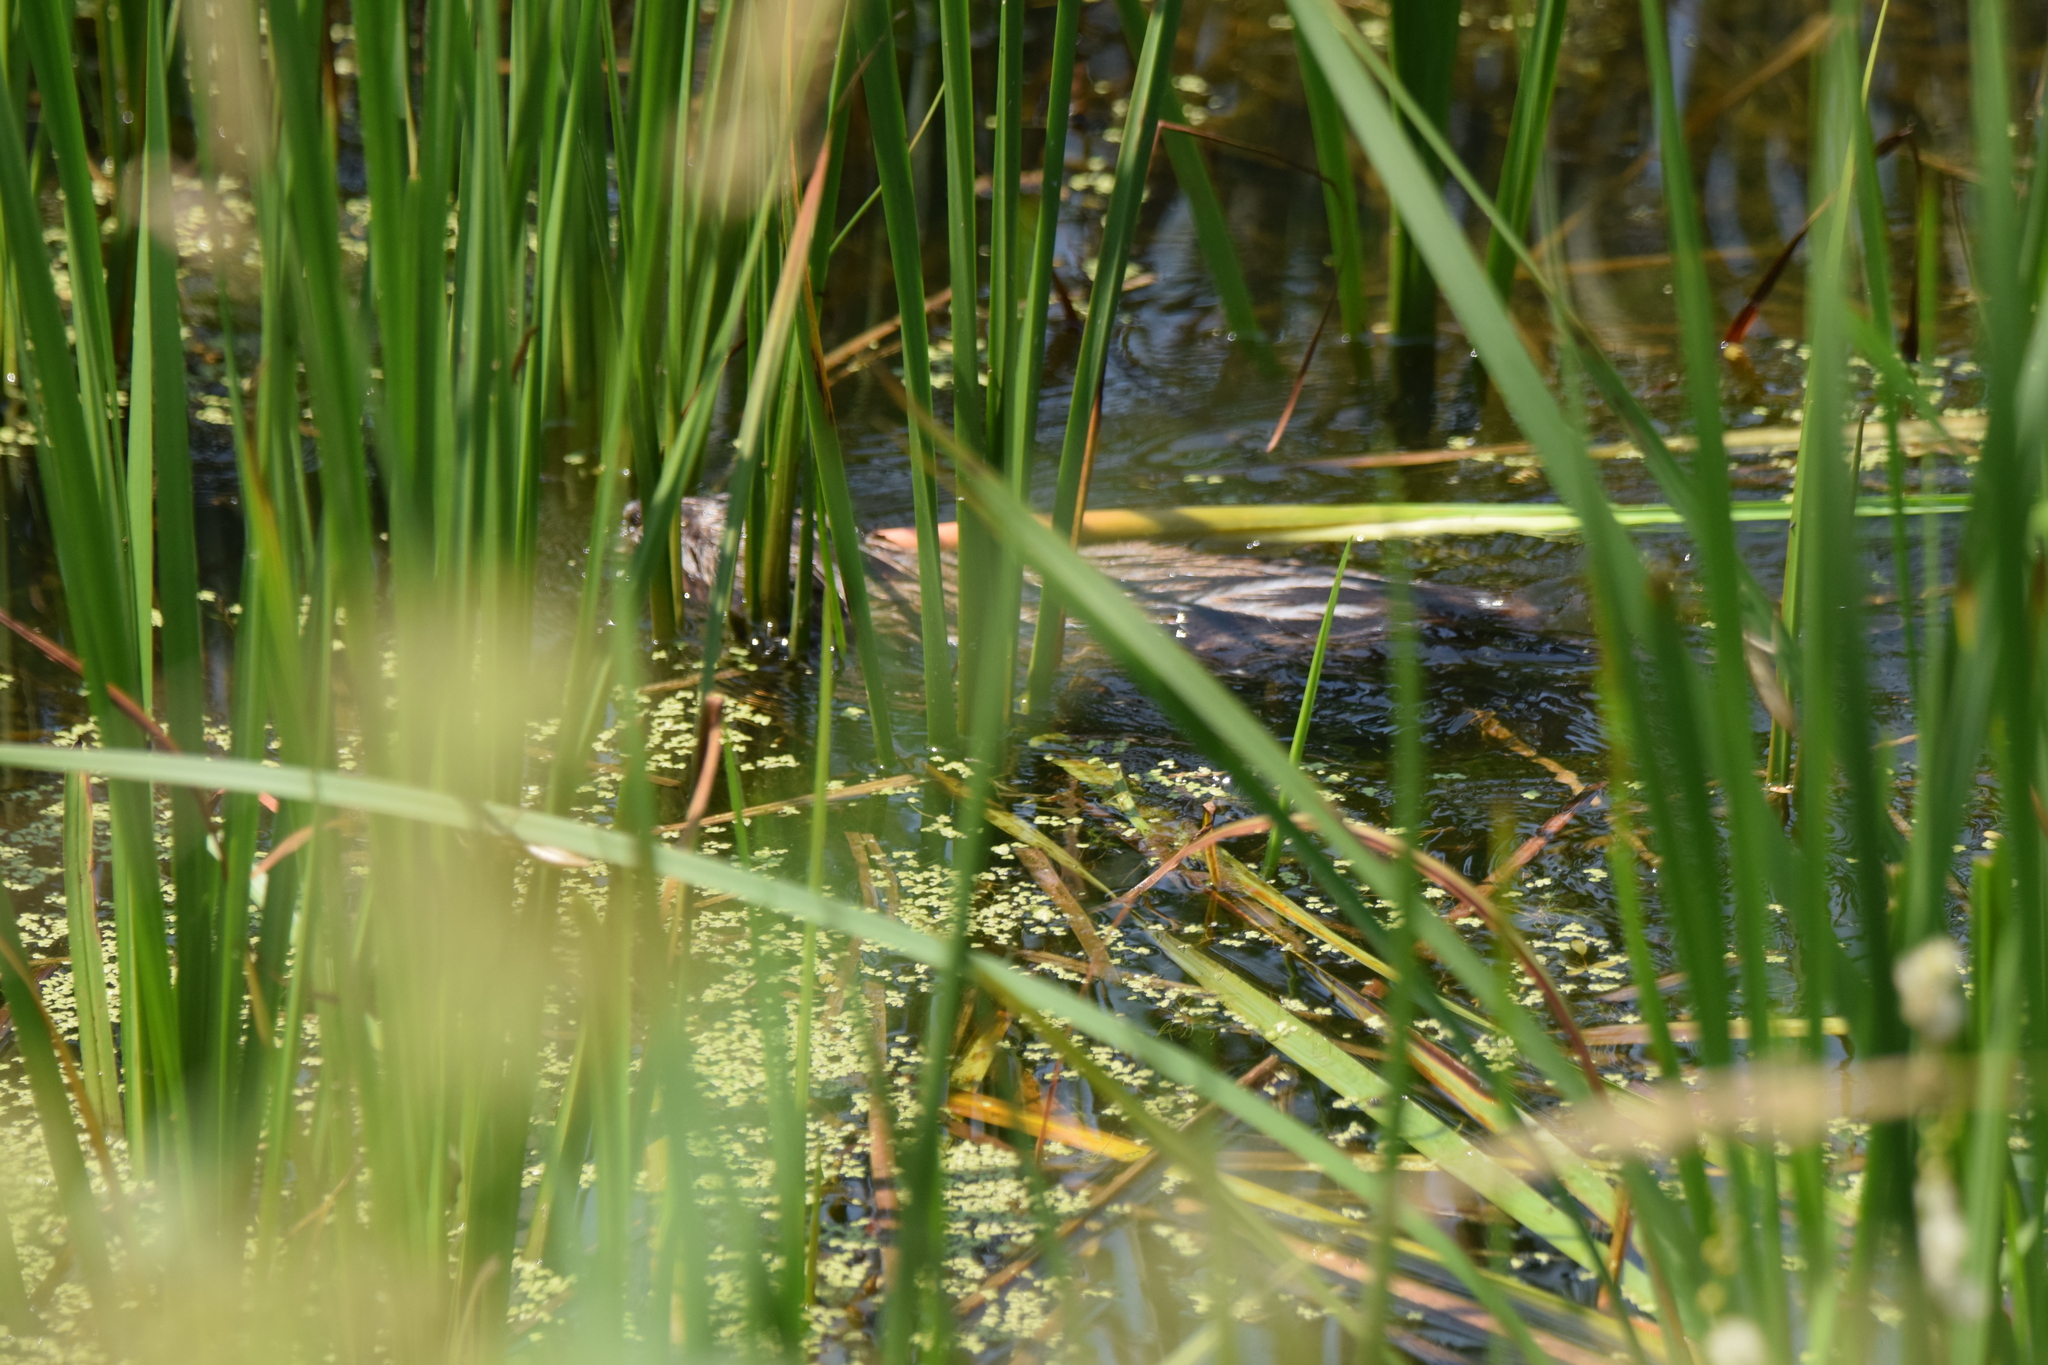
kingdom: Animalia
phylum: Chordata
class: Mammalia
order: Rodentia
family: Cricetidae
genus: Ondatra
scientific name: Ondatra zibethicus
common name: Muskrat
